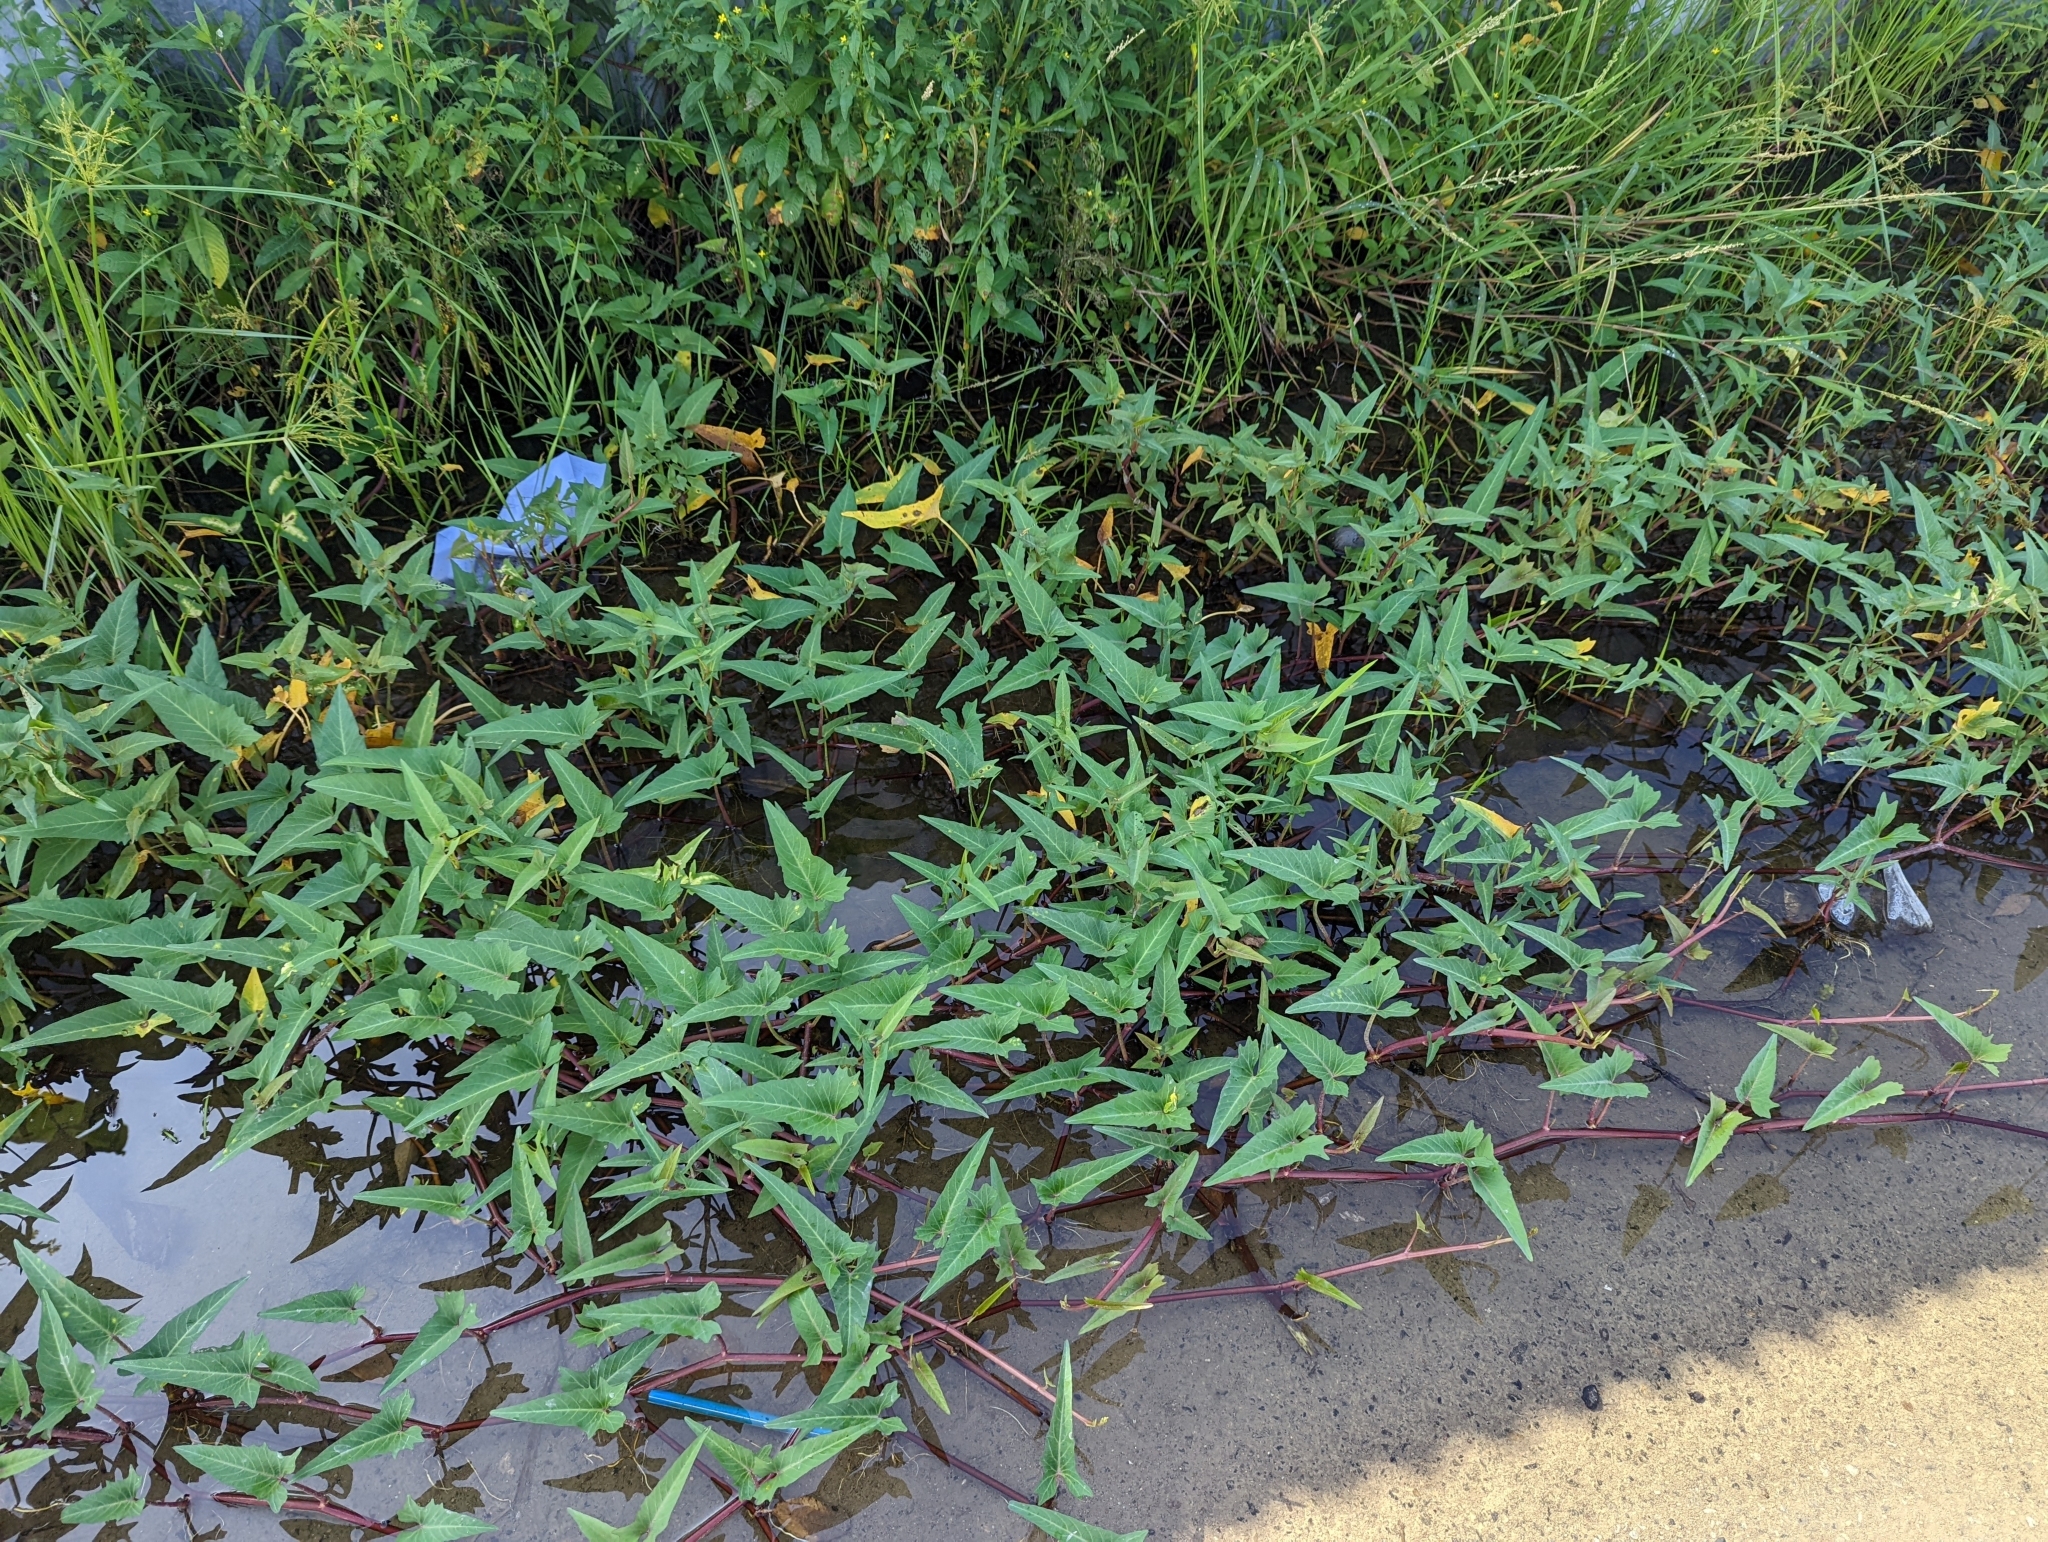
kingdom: Plantae
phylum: Tracheophyta
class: Magnoliopsida
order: Solanales
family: Convolvulaceae
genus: Ipomoea
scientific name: Ipomoea aquatica
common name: Swamp morning-glory
